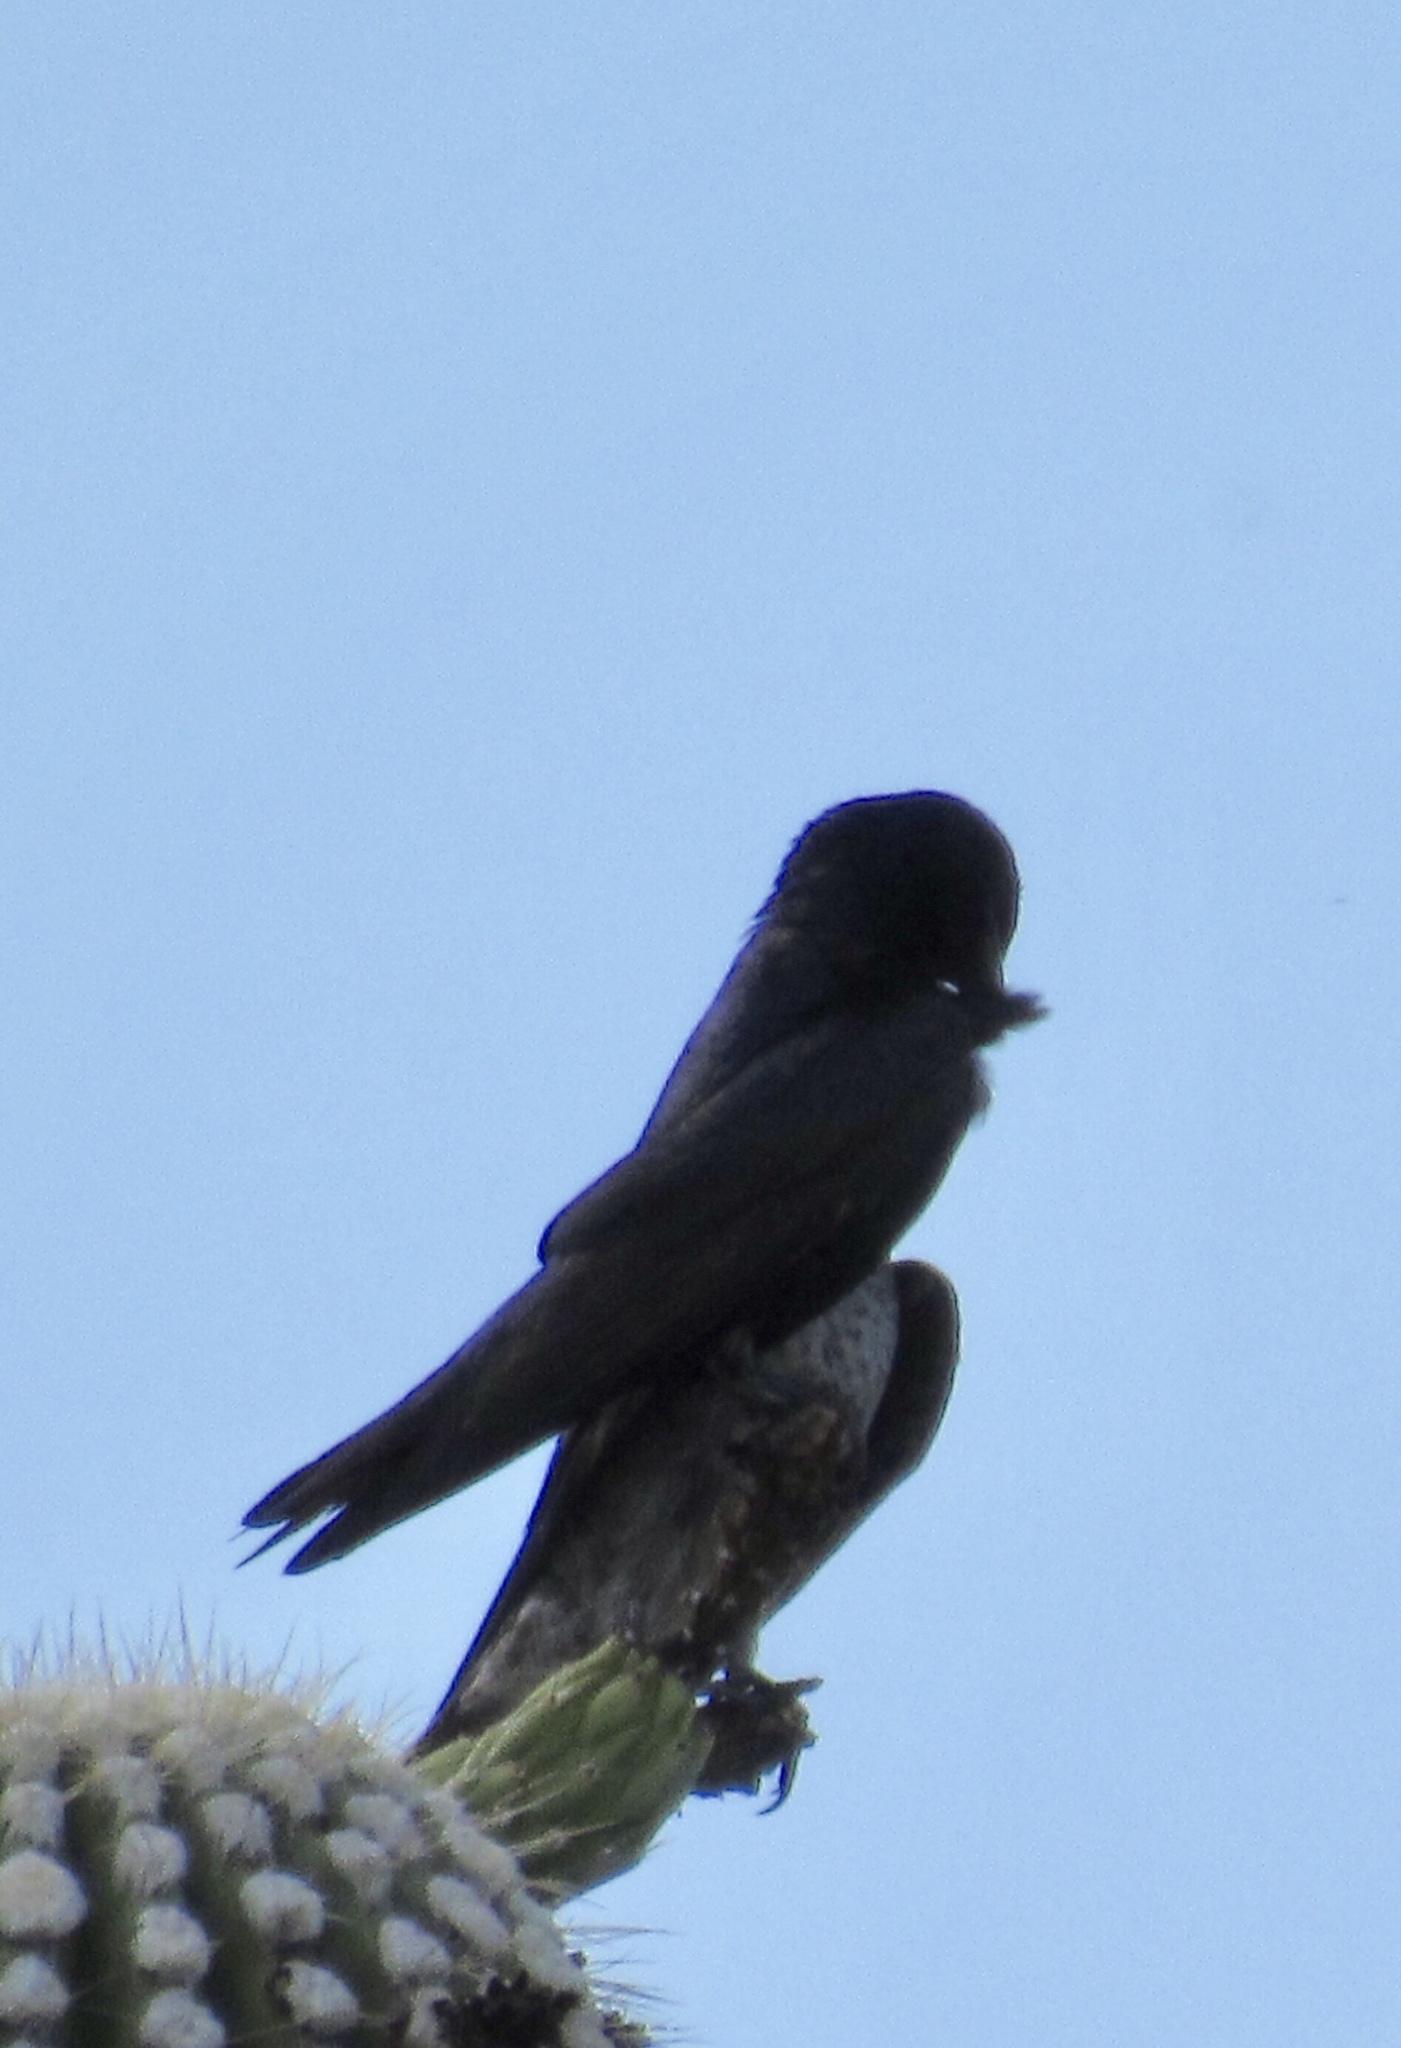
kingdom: Animalia
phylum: Chordata
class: Aves
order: Passeriformes
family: Hirundinidae
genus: Progne
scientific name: Progne subis
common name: Purple martin
